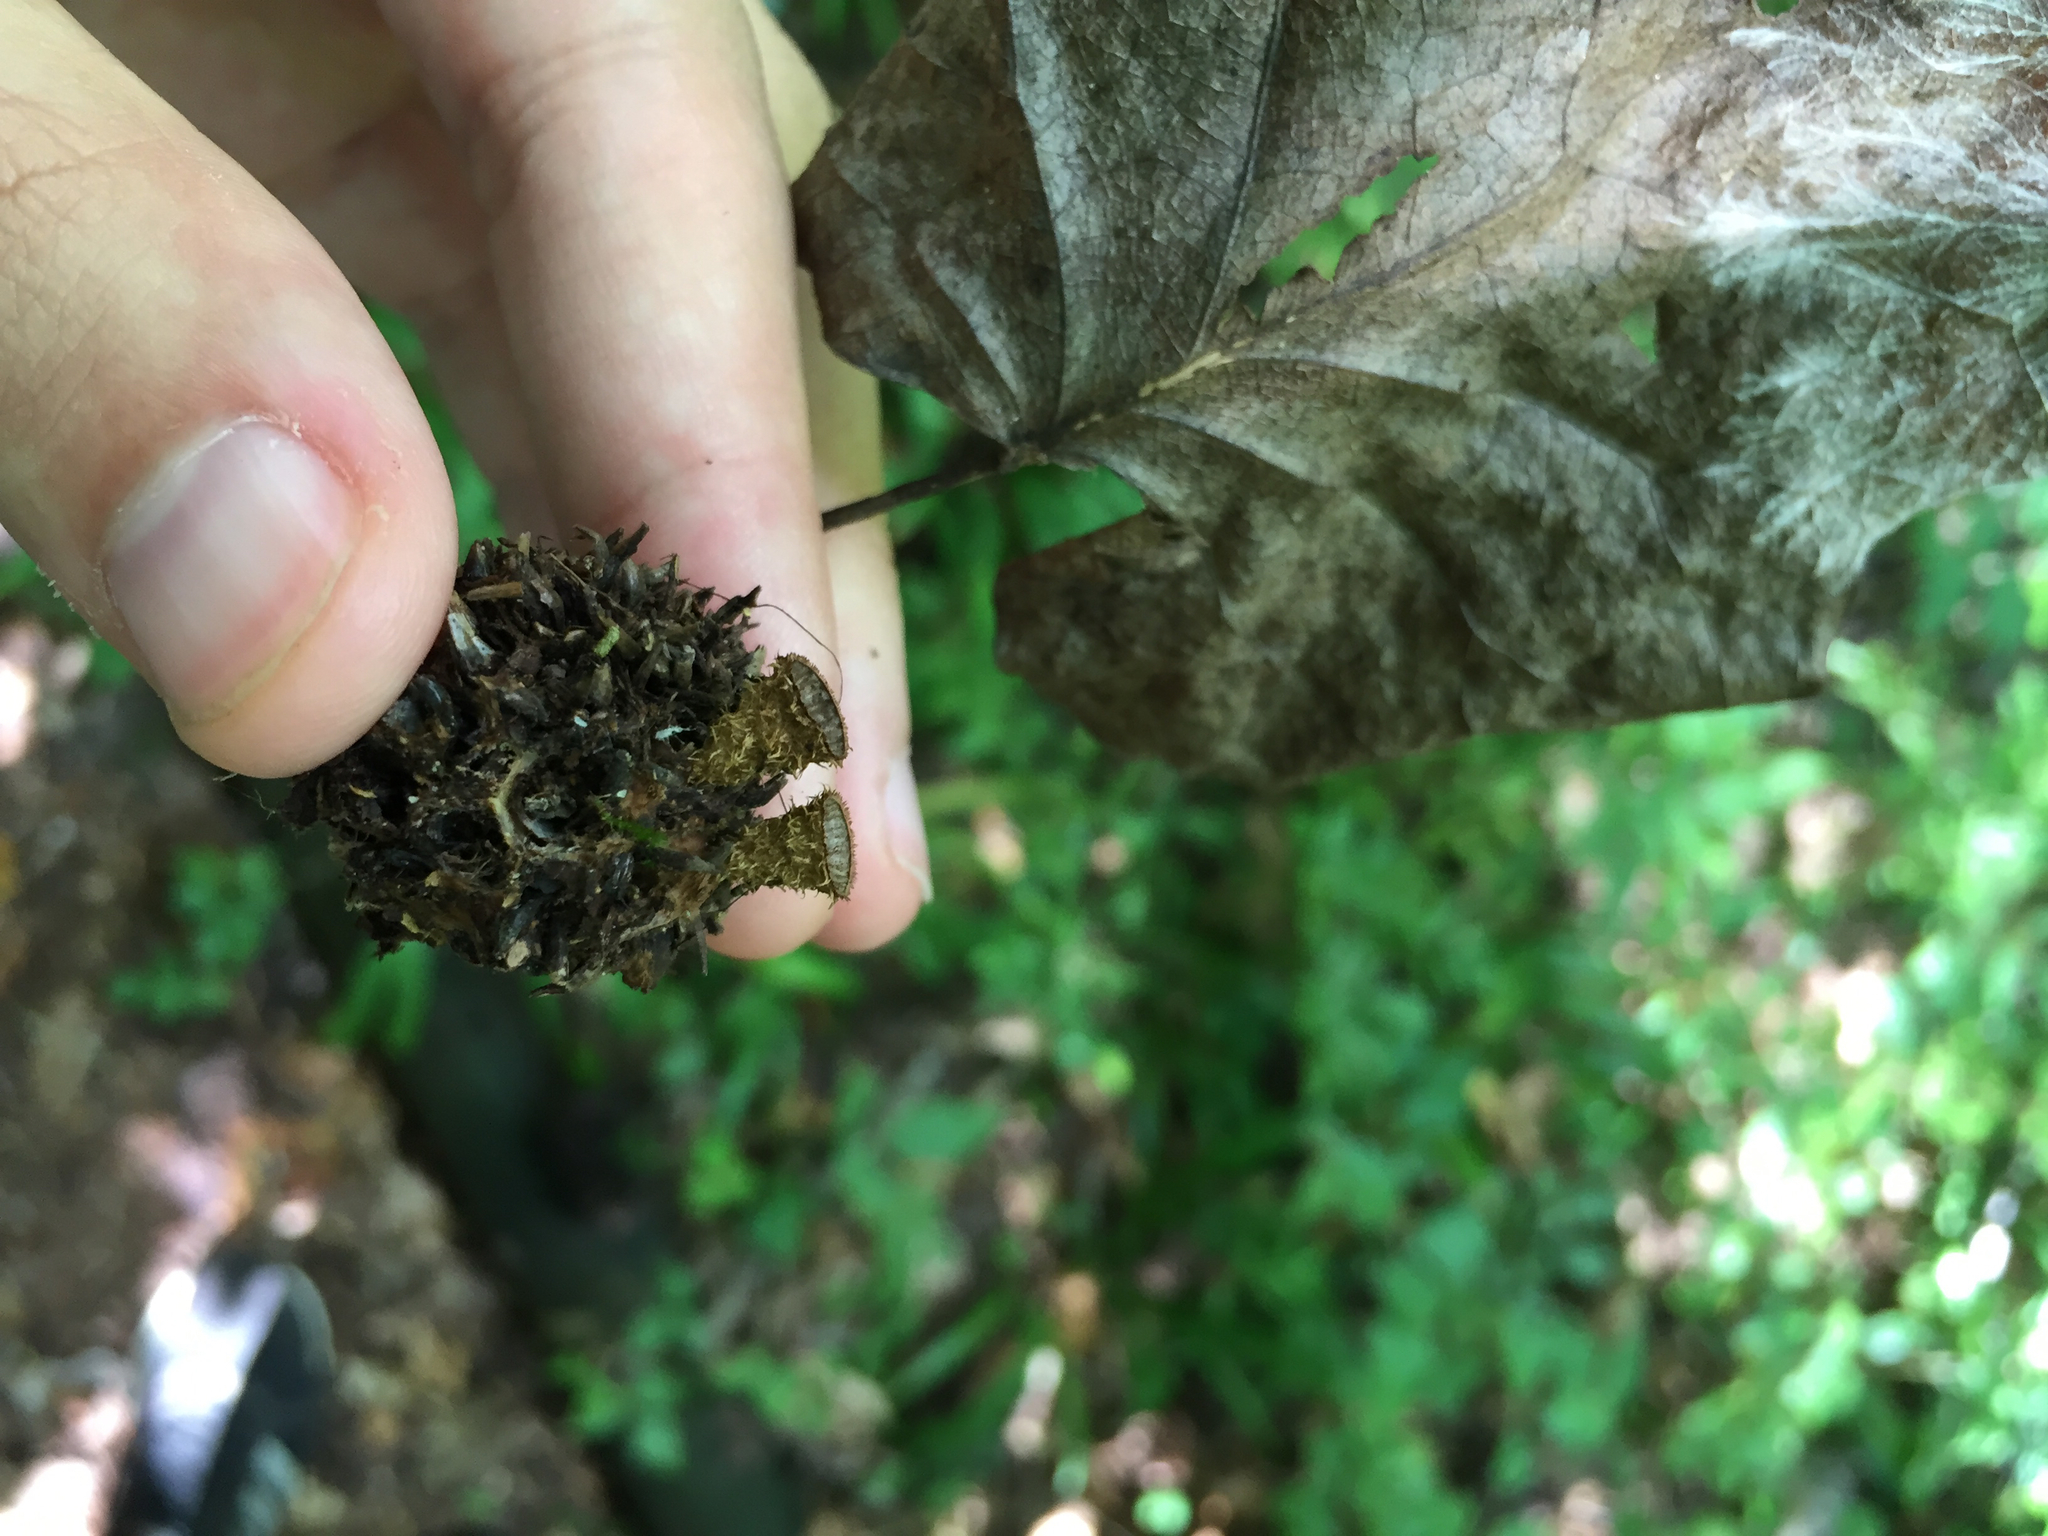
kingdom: Fungi
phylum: Basidiomycota
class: Agaricomycetes
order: Agaricales
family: Agaricaceae
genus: Cyathus
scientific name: Cyathus striatus
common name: Fluted bird's nest
